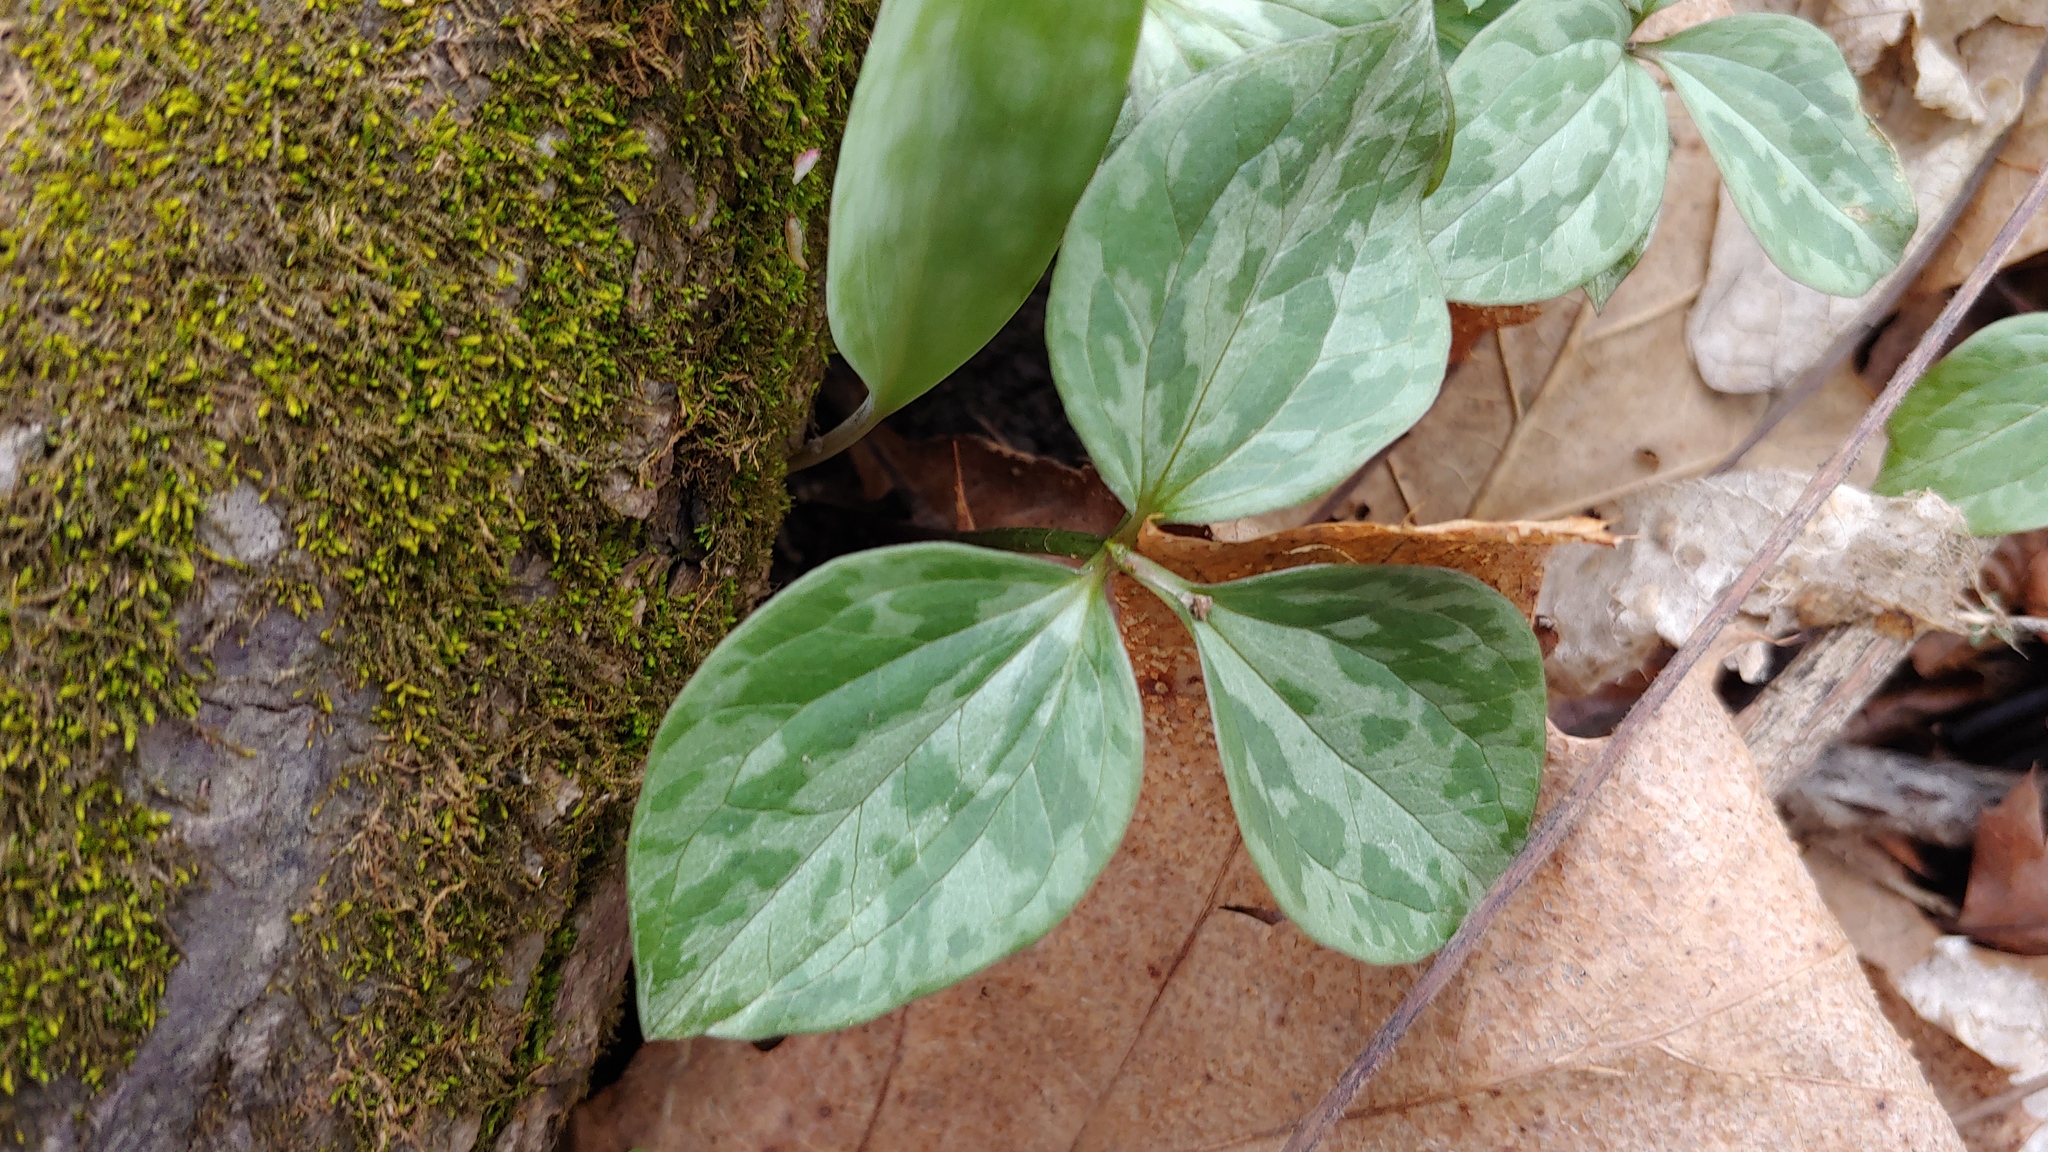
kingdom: Plantae
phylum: Tracheophyta
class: Liliopsida
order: Liliales
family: Melanthiaceae
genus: Trillium
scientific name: Trillium recurvatum
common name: Bloody butcher
